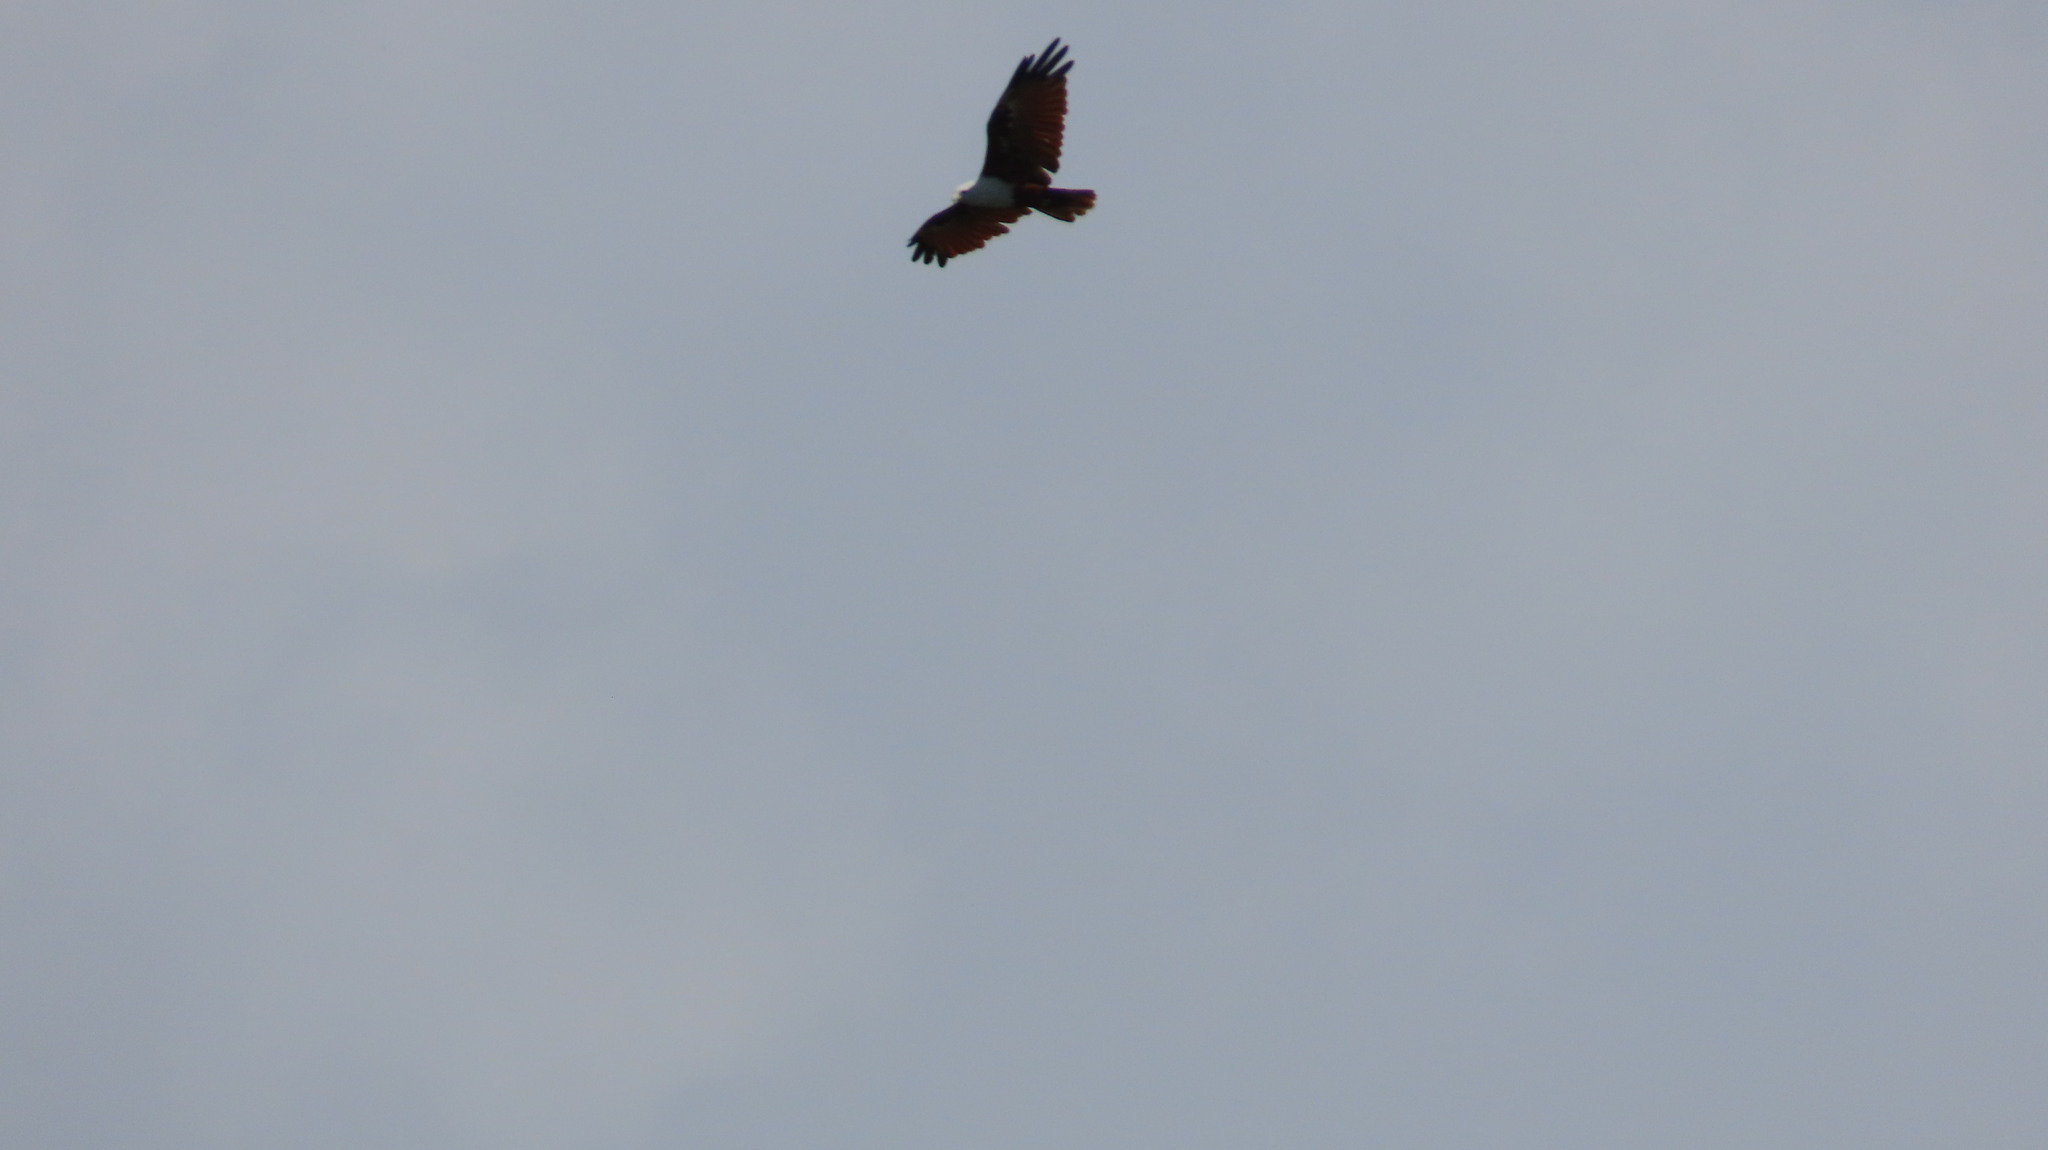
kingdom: Animalia
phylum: Chordata
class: Aves
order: Accipitriformes
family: Accipitridae
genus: Haliastur
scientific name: Haliastur indus
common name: Brahminy kite
